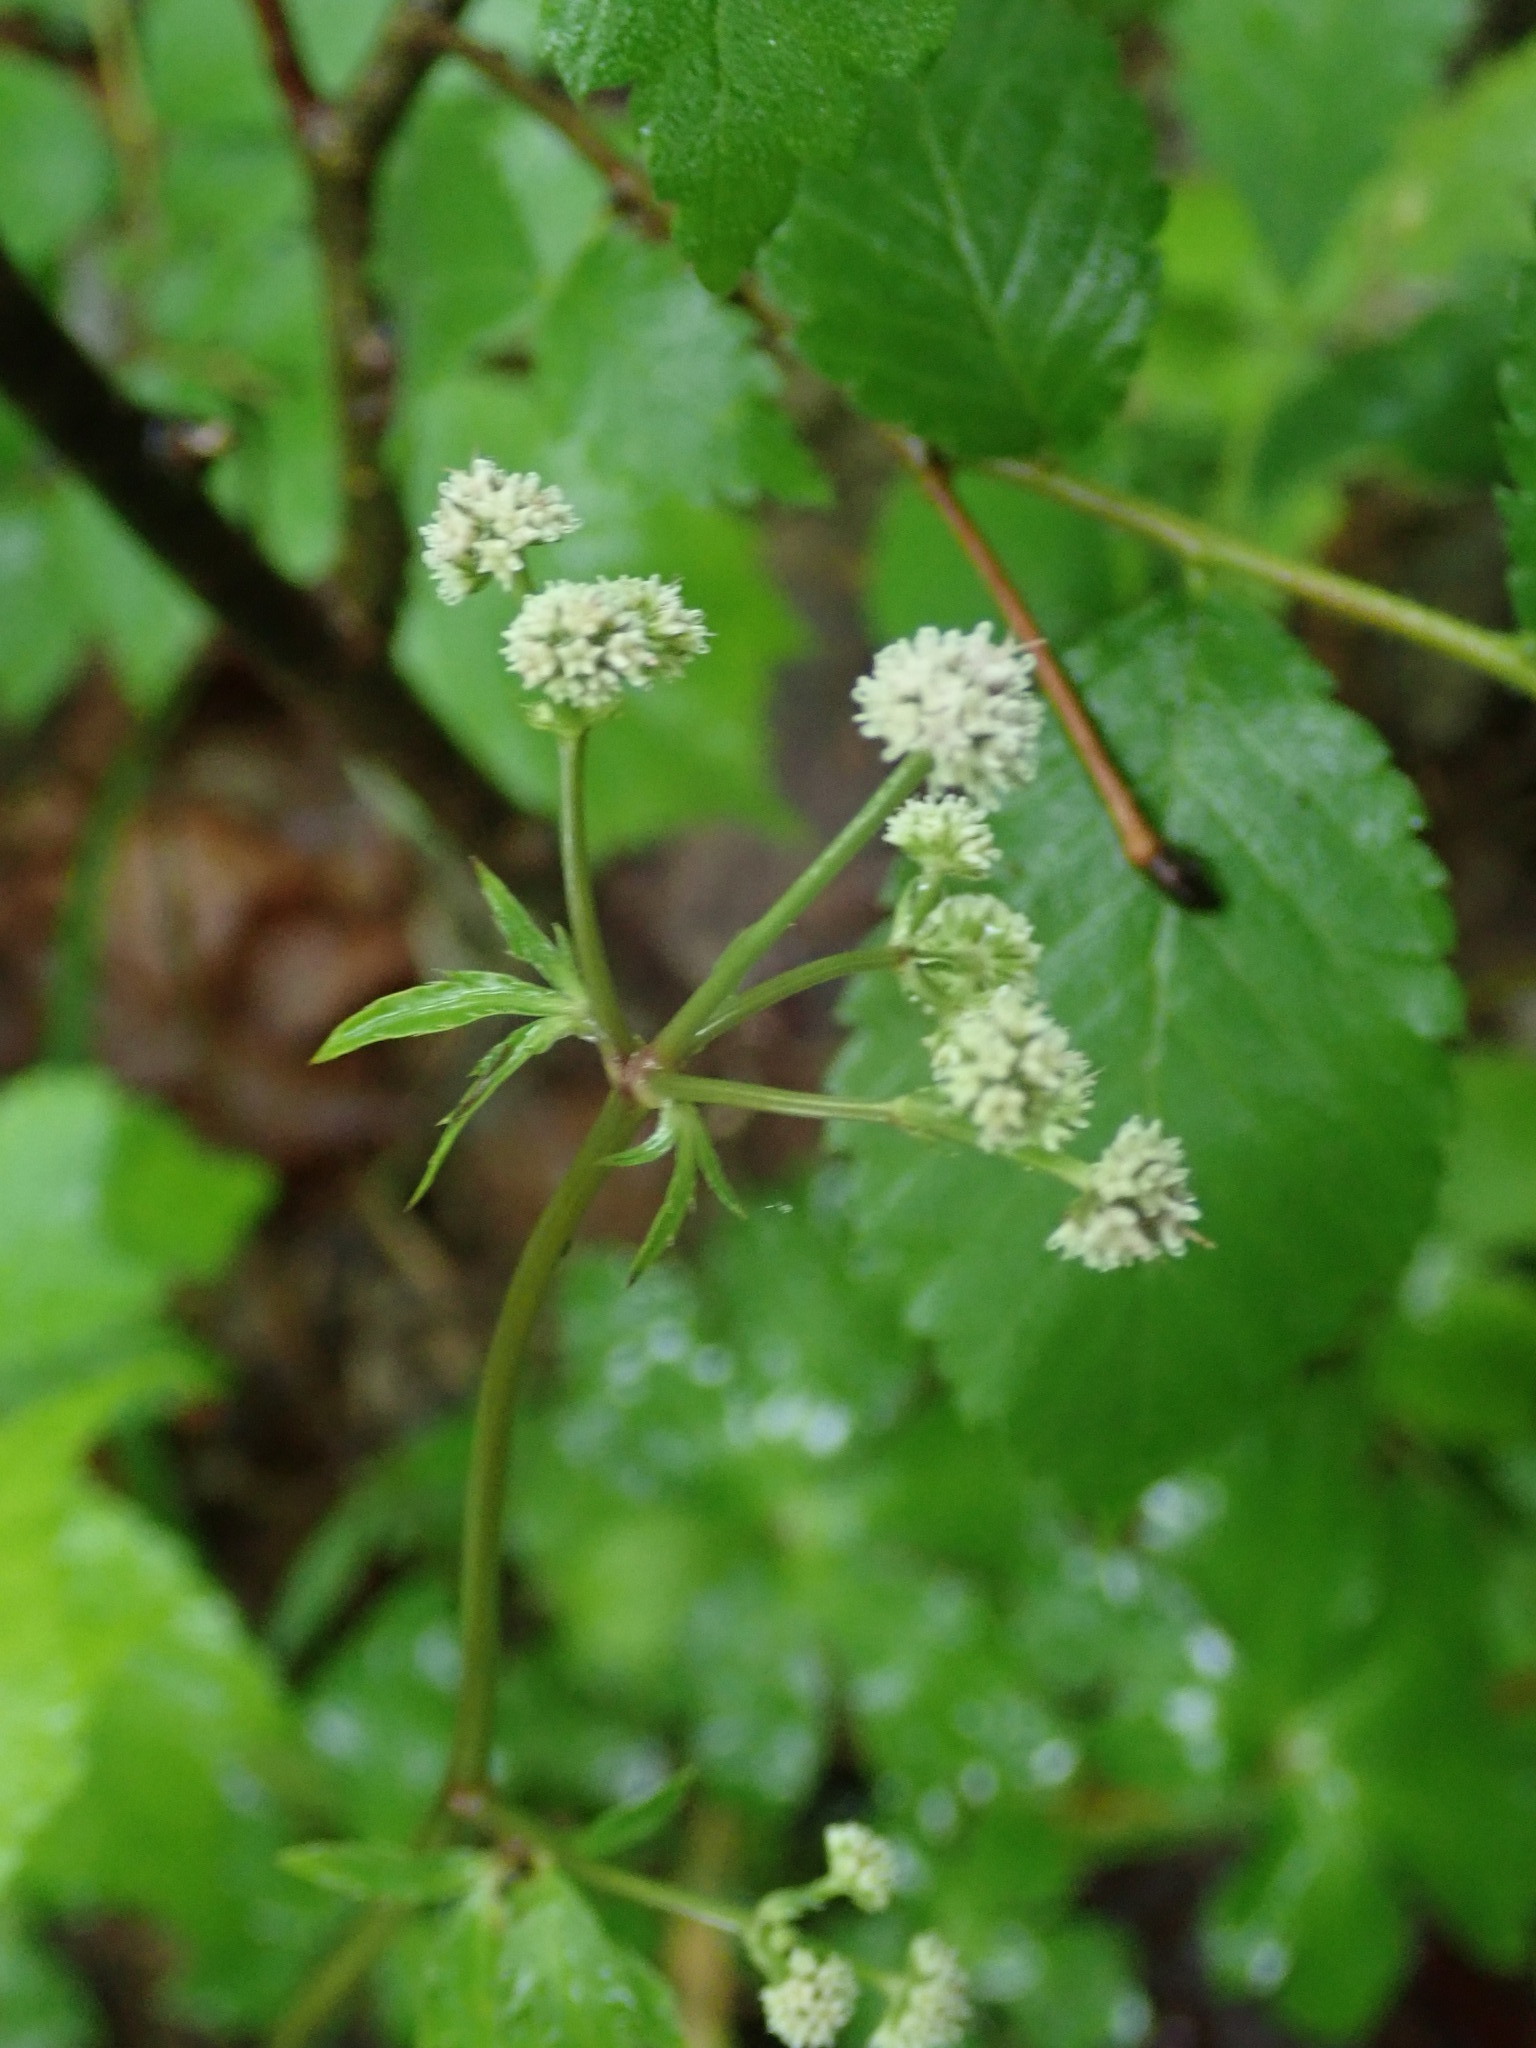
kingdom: Plantae
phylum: Tracheophyta
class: Magnoliopsida
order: Apiales
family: Apiaceae
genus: Sanicula
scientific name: Sanicula europaea
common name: Sanicle
